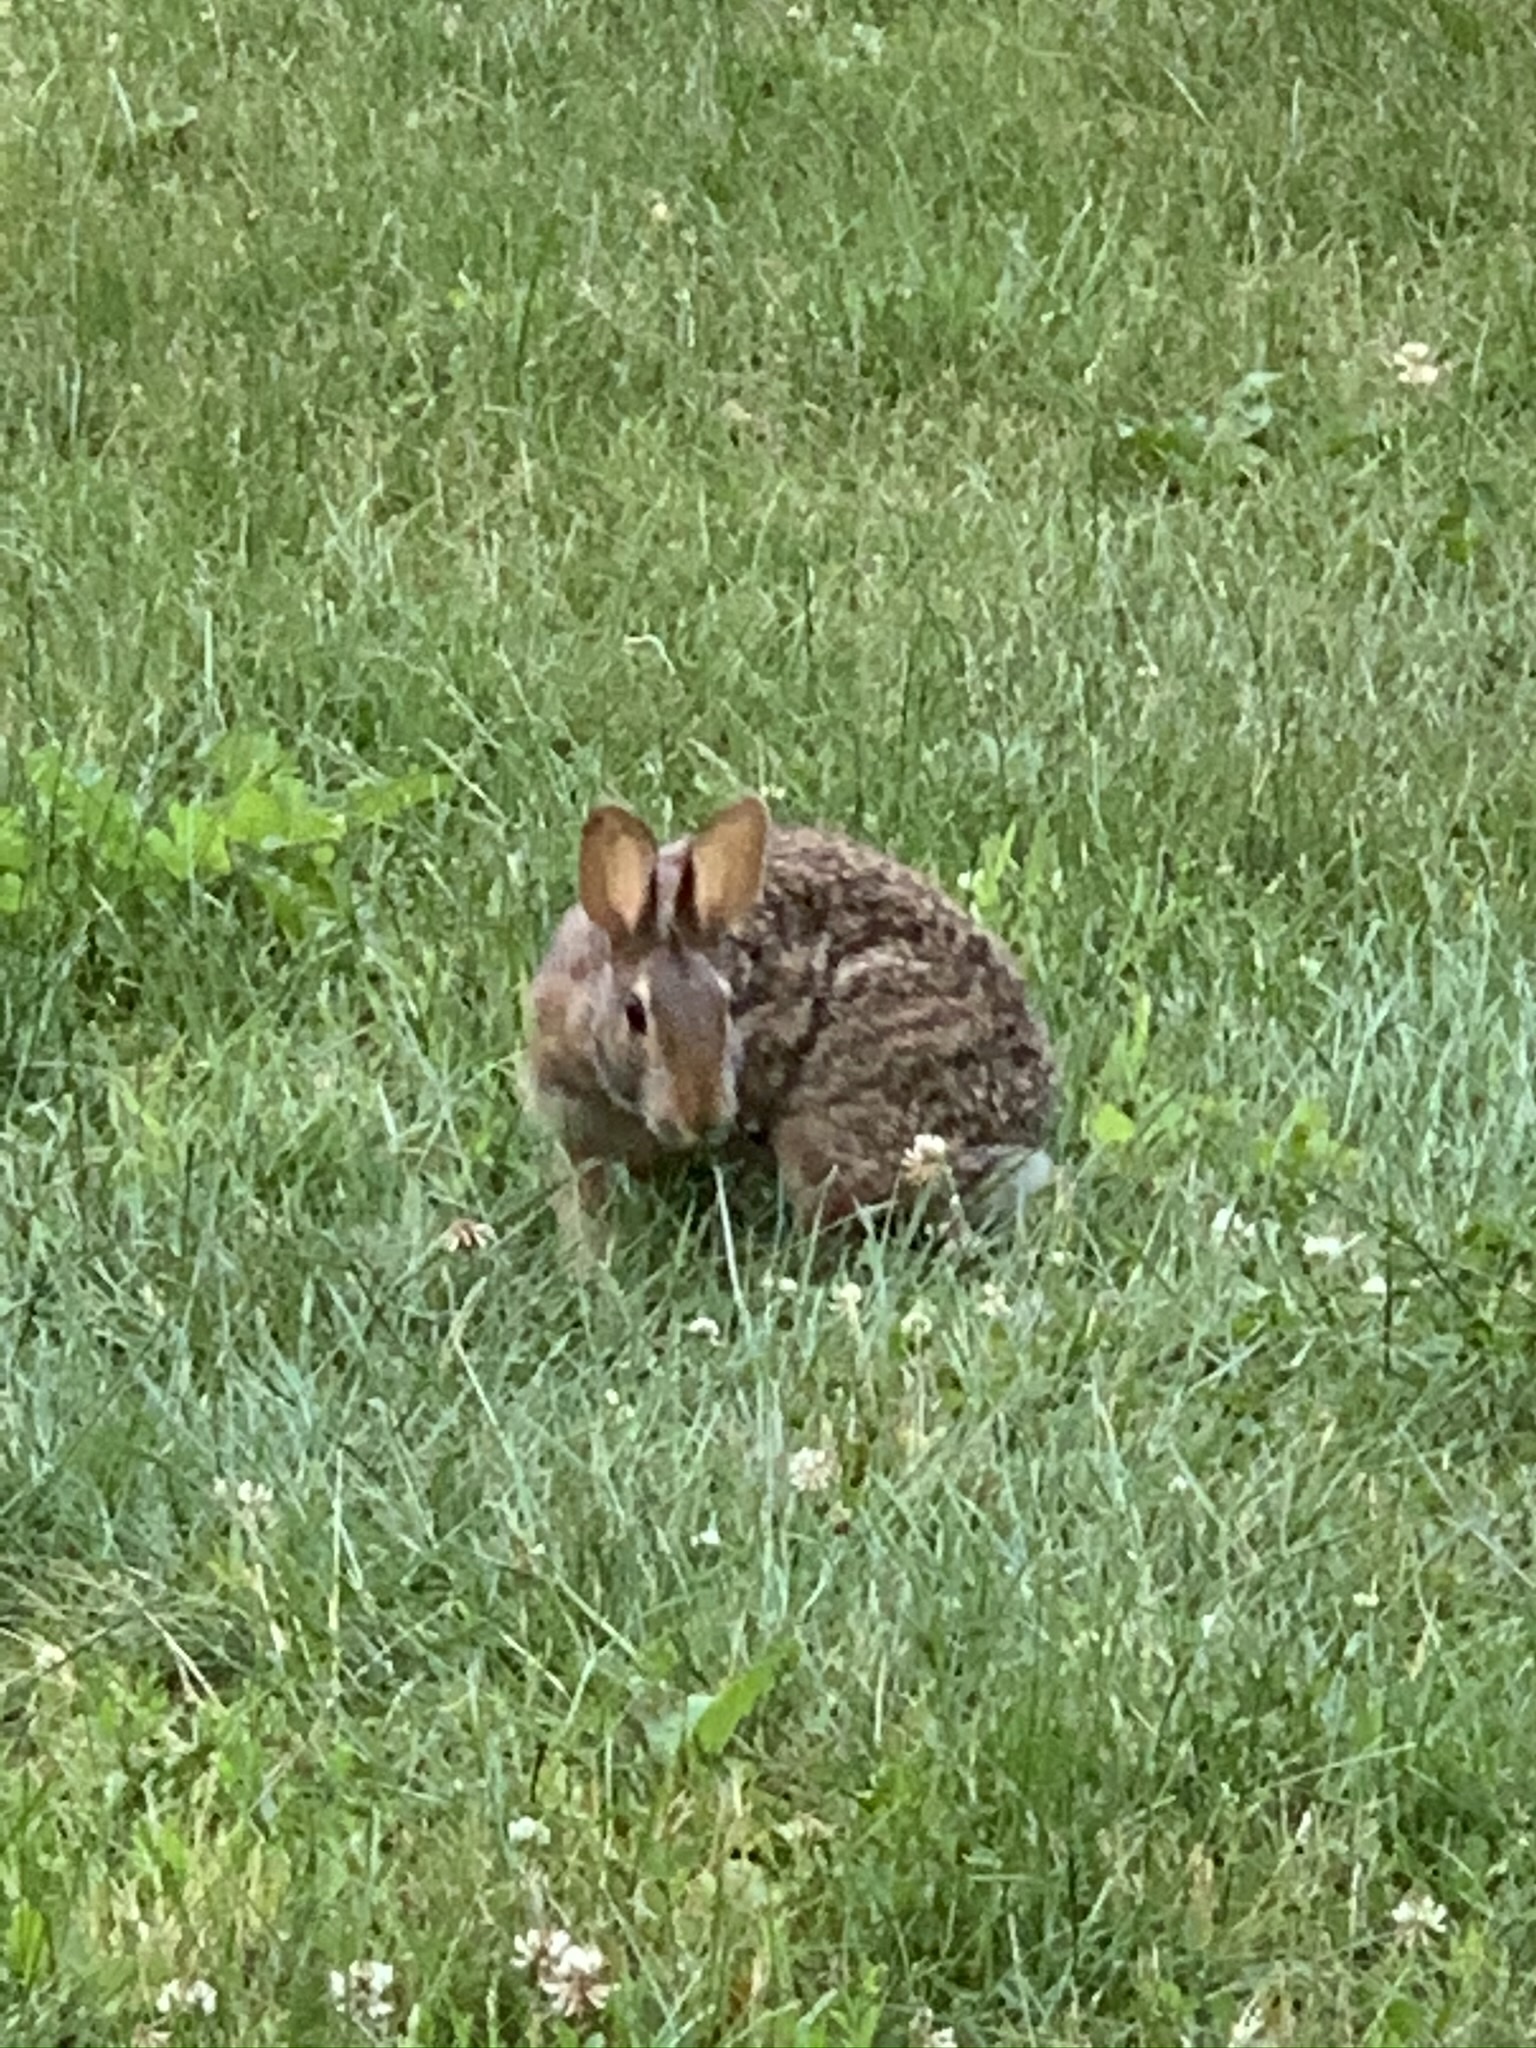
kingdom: Animalia
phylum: Chordata
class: Mammalia
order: Lagomorpha
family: Leporidae
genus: Sylvilagus
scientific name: Sylvilagus floridanus
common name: Eastern cottontail
